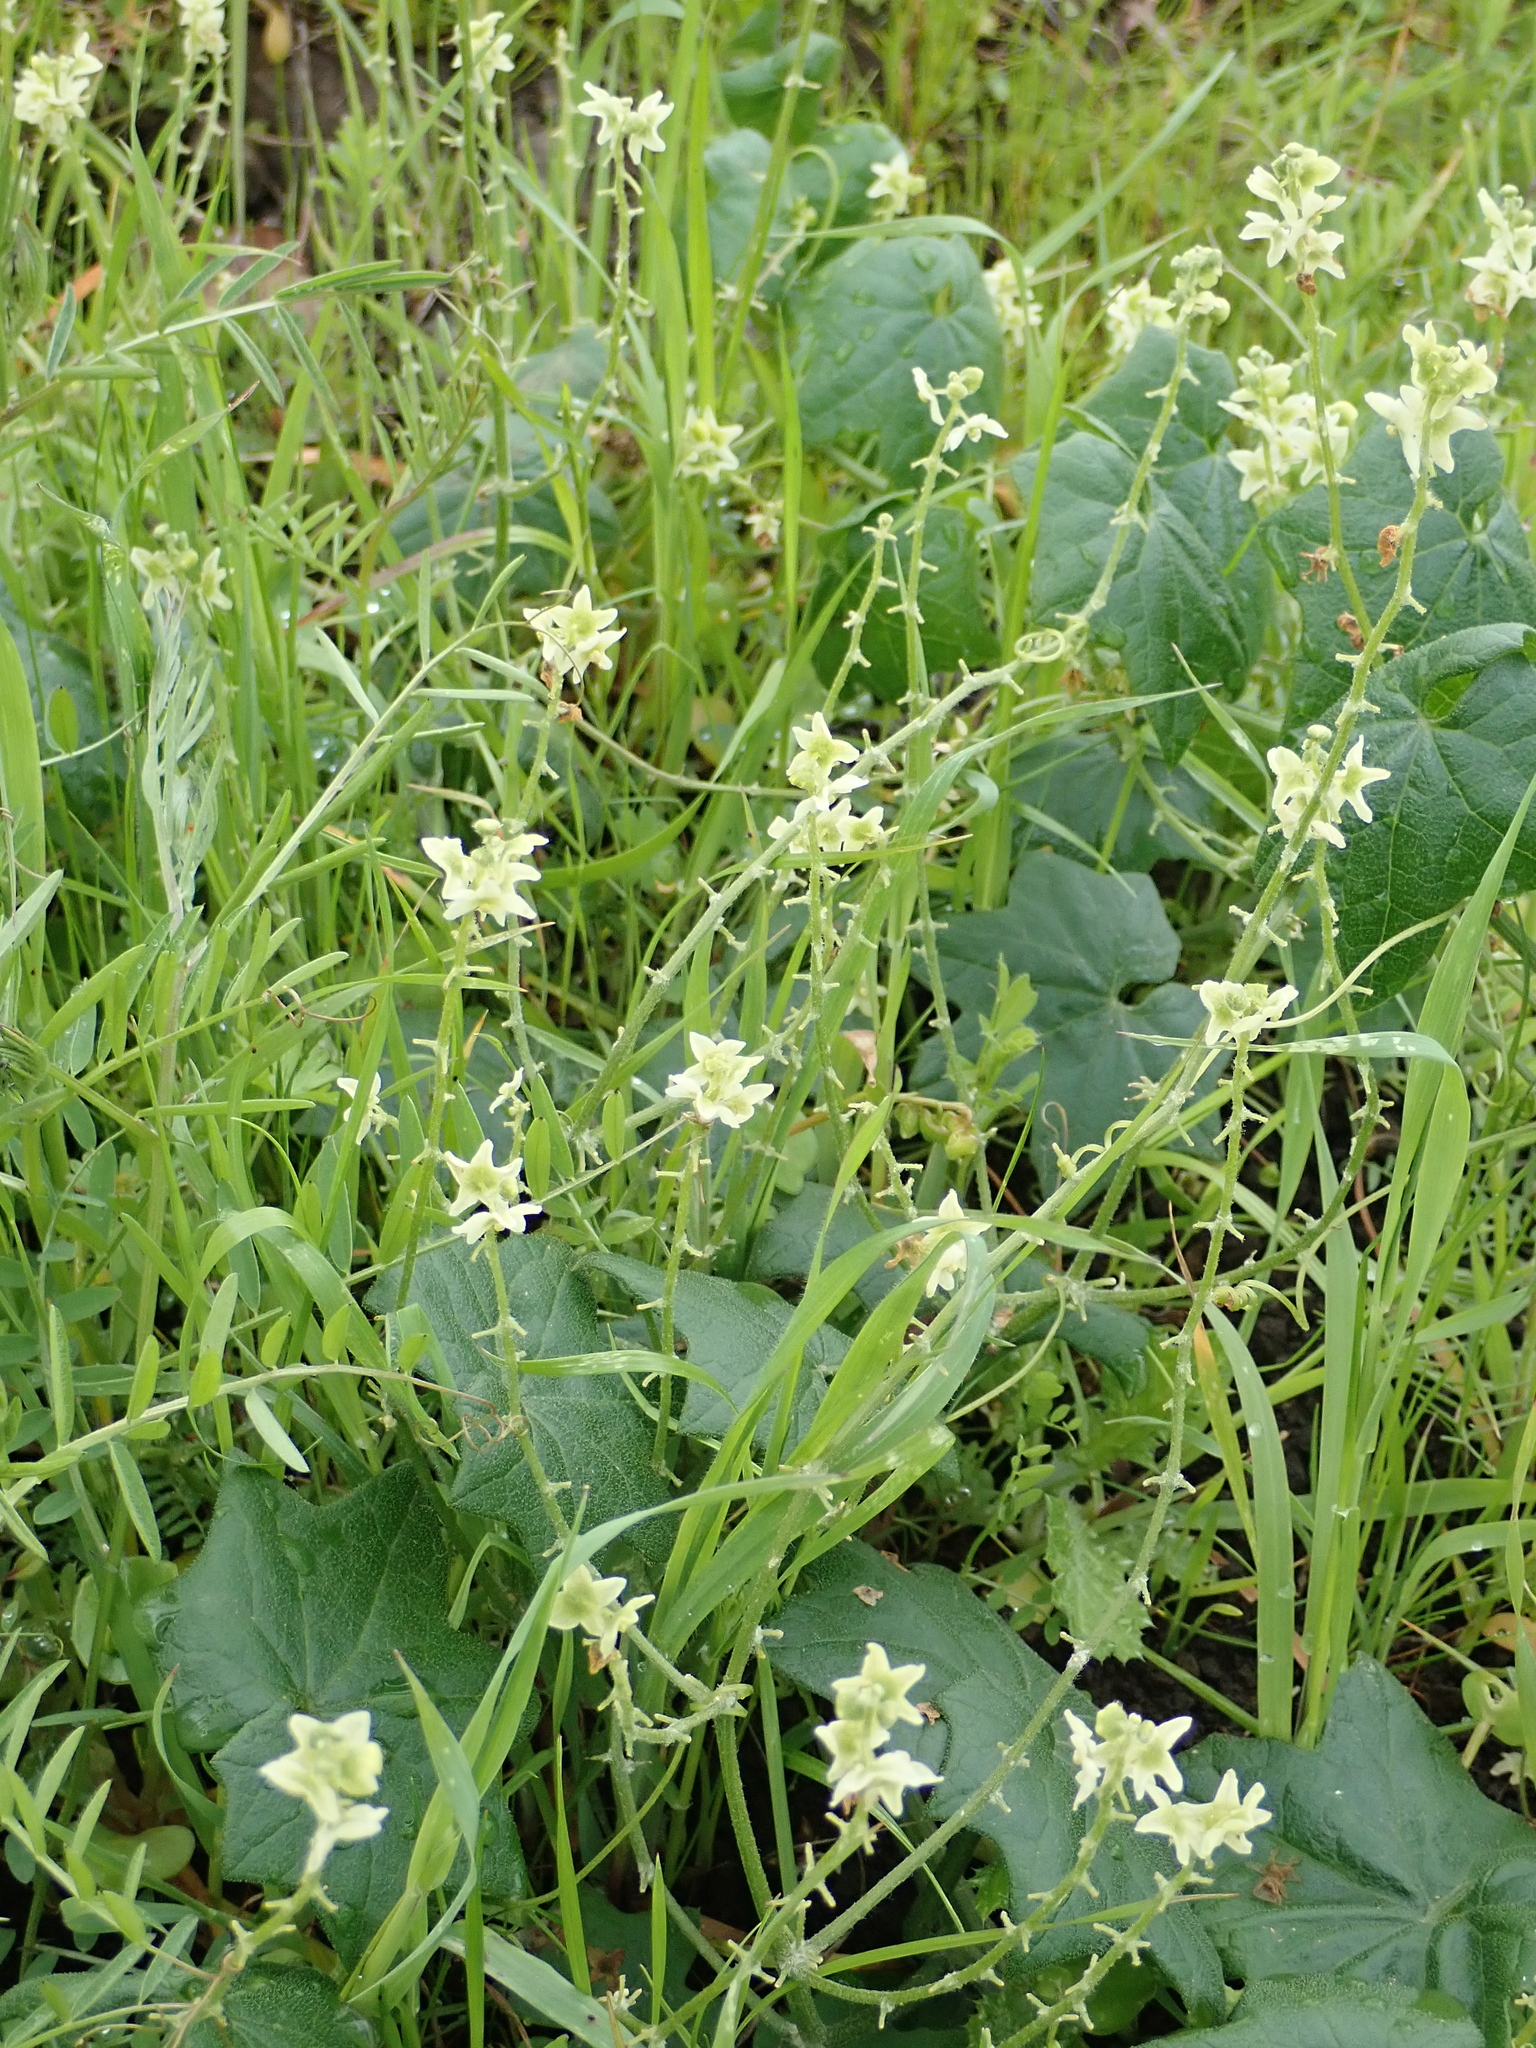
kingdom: Plantae
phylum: Tracheophyta
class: Magnoliopsida
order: Cucurbitales
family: Cucurbitaceae
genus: Marah
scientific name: Marah fabacea
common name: California manroot
